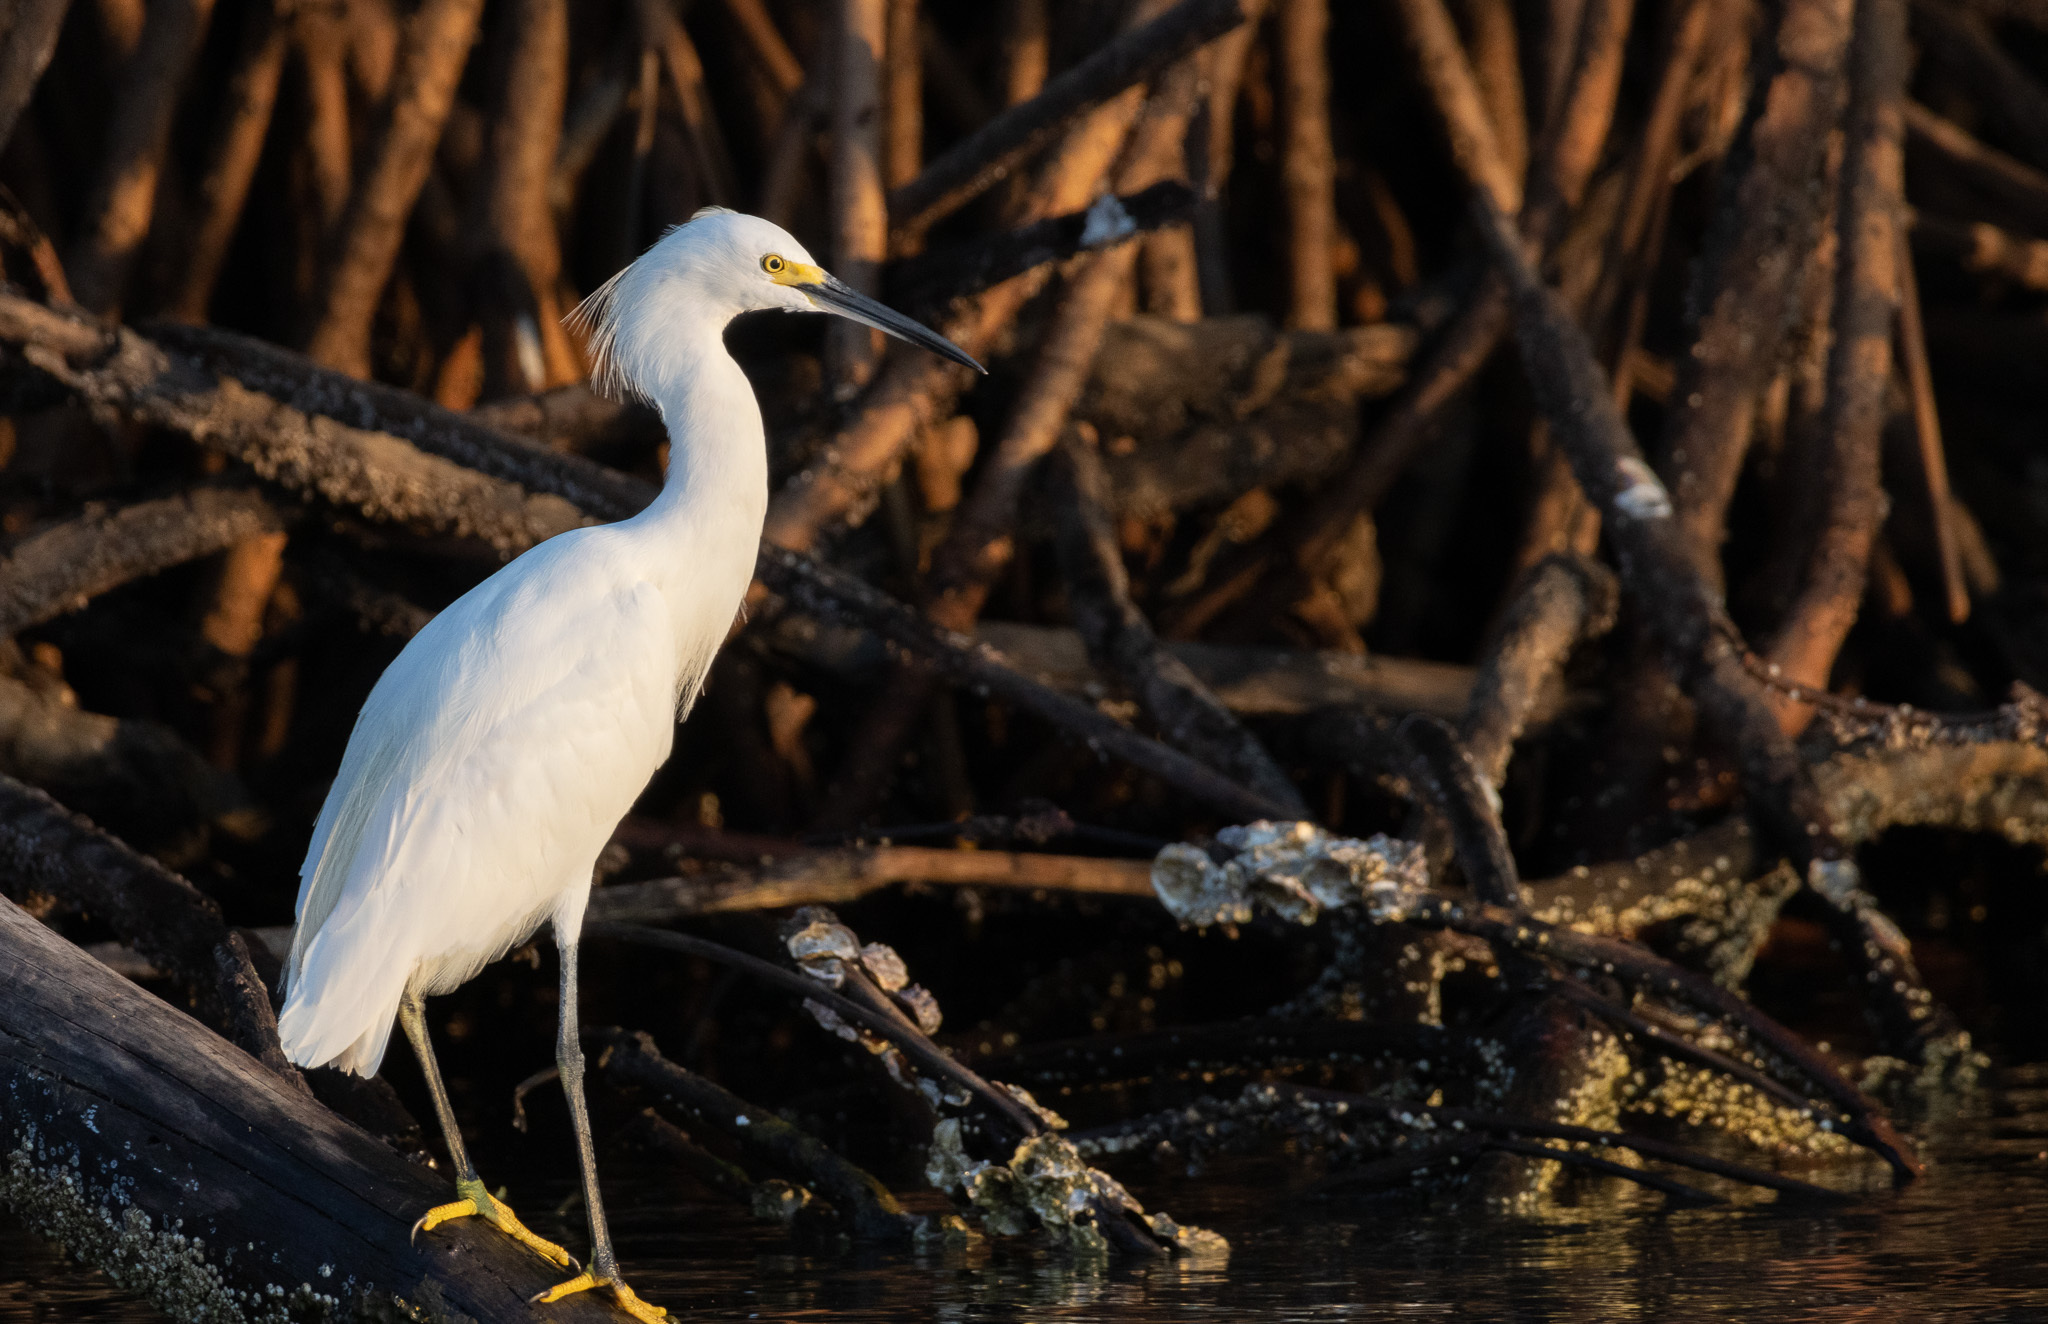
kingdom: Animalia
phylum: Chordata
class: Aves
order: Pelecaniformes
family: Ardeidae
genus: Egretta
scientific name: Egretta thula
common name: Snowy egret
